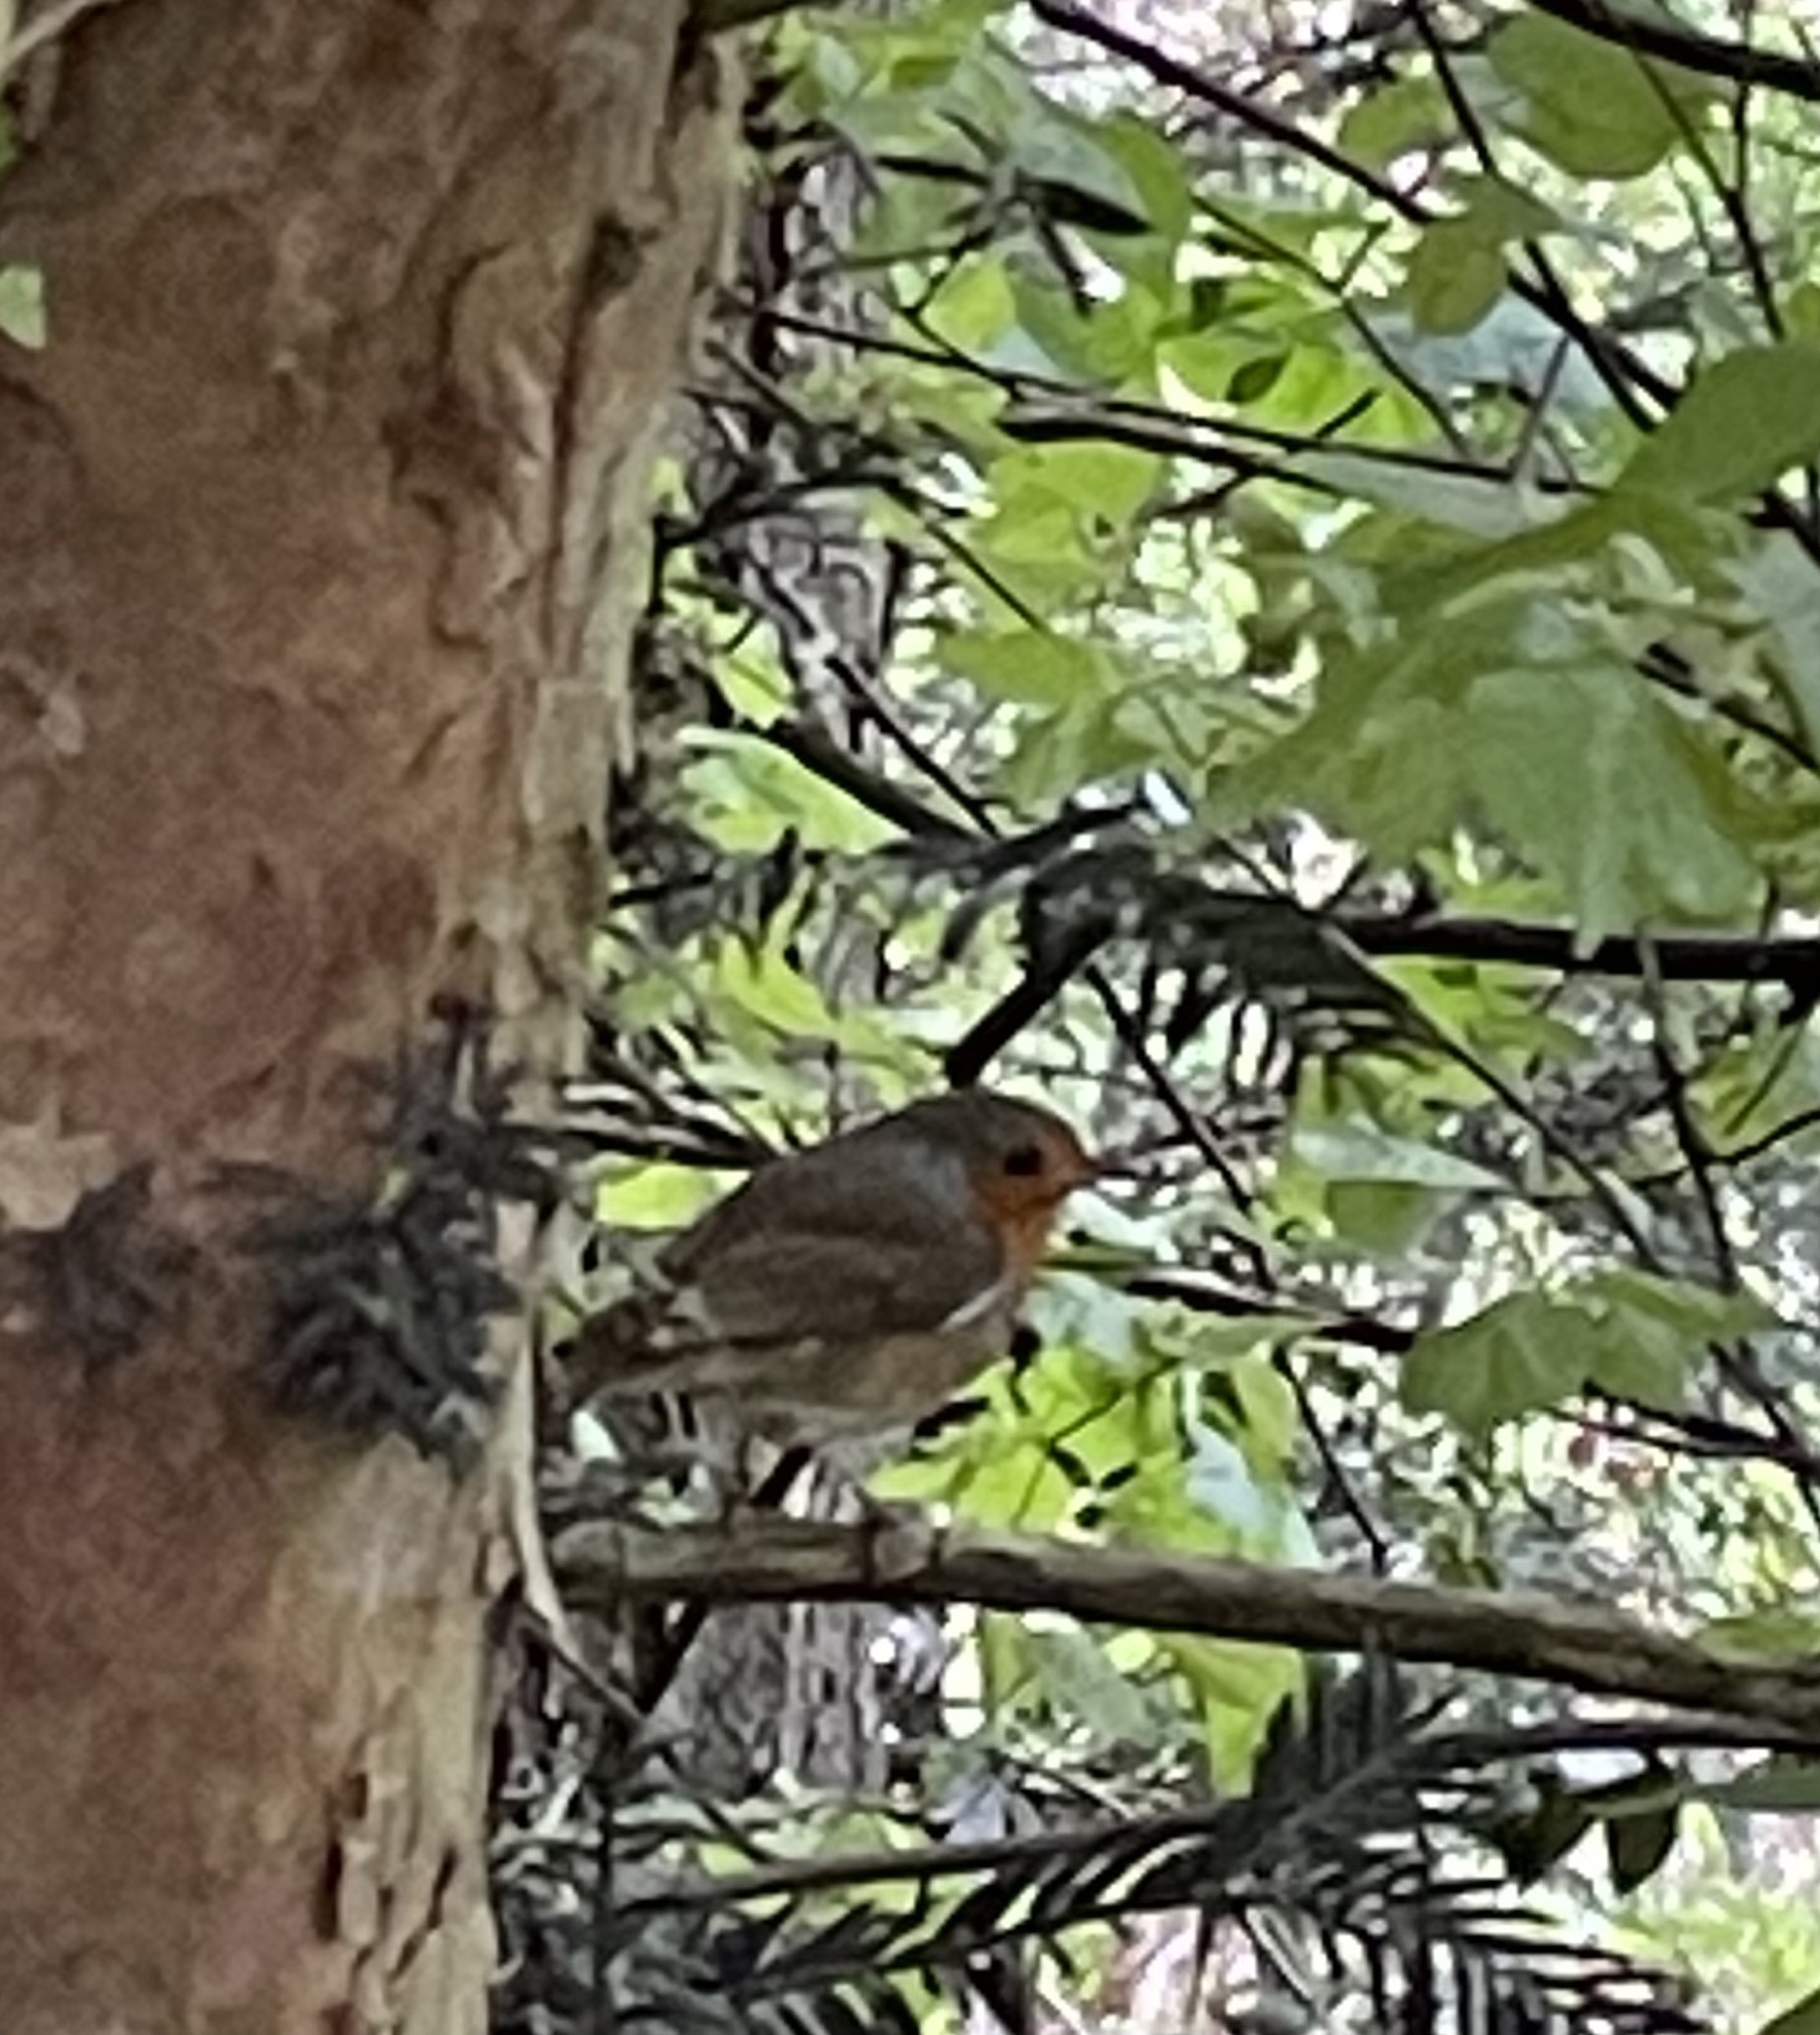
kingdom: Animalia
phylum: Chordata
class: Aves
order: Passeriformes
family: Muscicapidae
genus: Erithacus
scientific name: Erithacus rubecula
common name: European robin
